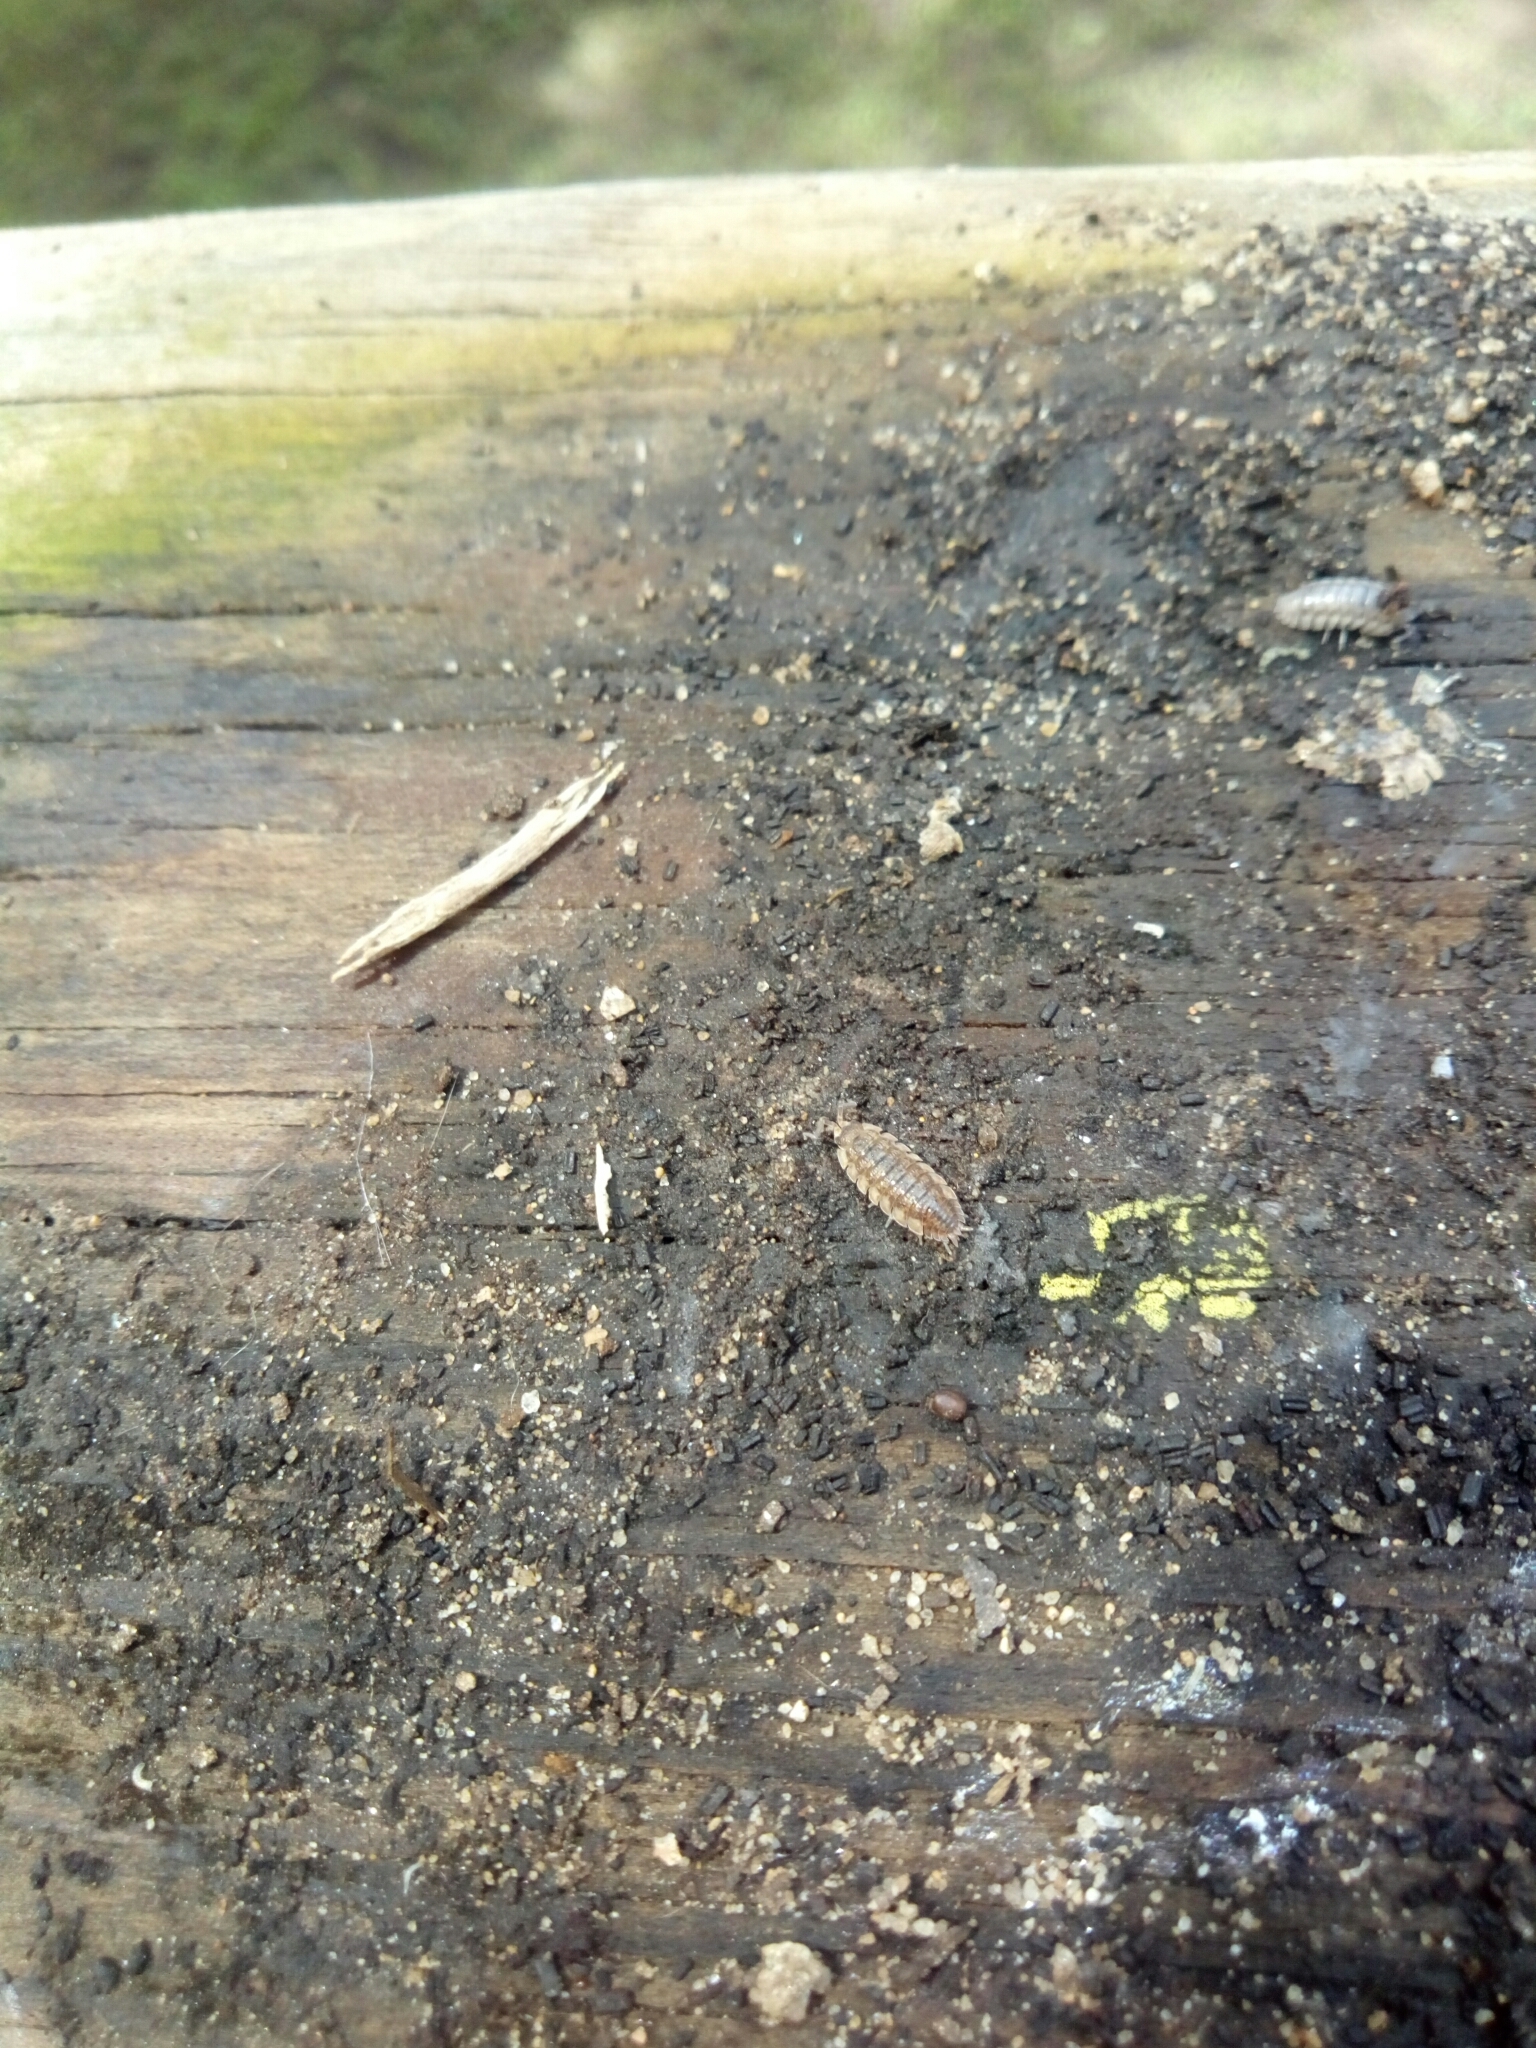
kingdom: Animalia
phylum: Arthropoda
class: Malacostraca
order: Isopoda
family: Porcellionidae
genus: Porcellio
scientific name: Porcellio scaber
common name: Common rough woodlouse
